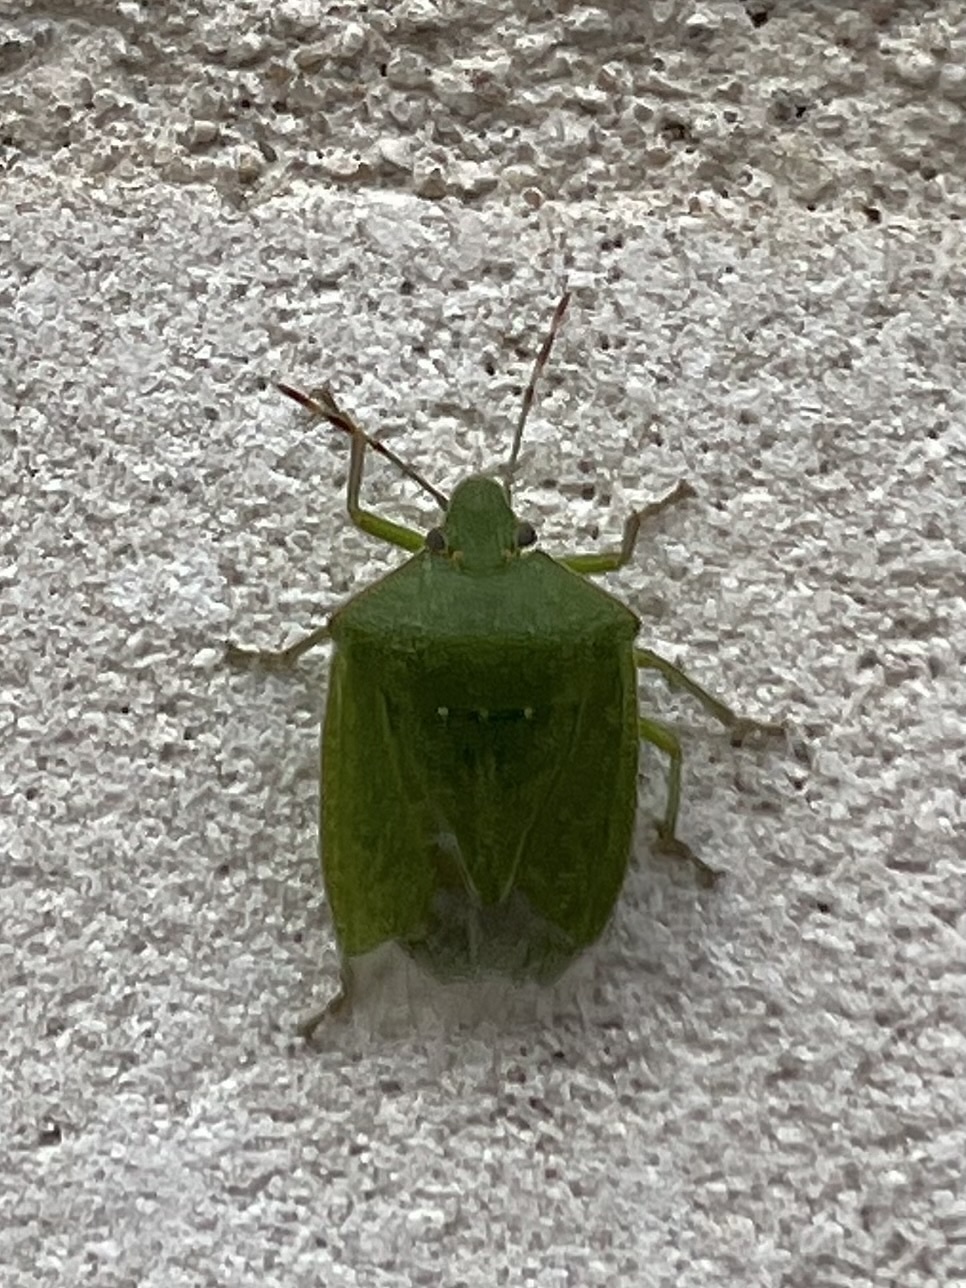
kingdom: Animalia
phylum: Arthropoda
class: Insecta
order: Hemiptera
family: Pentatomidae
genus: Nezara
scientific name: Nezara viridula
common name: Southern green stink bug
